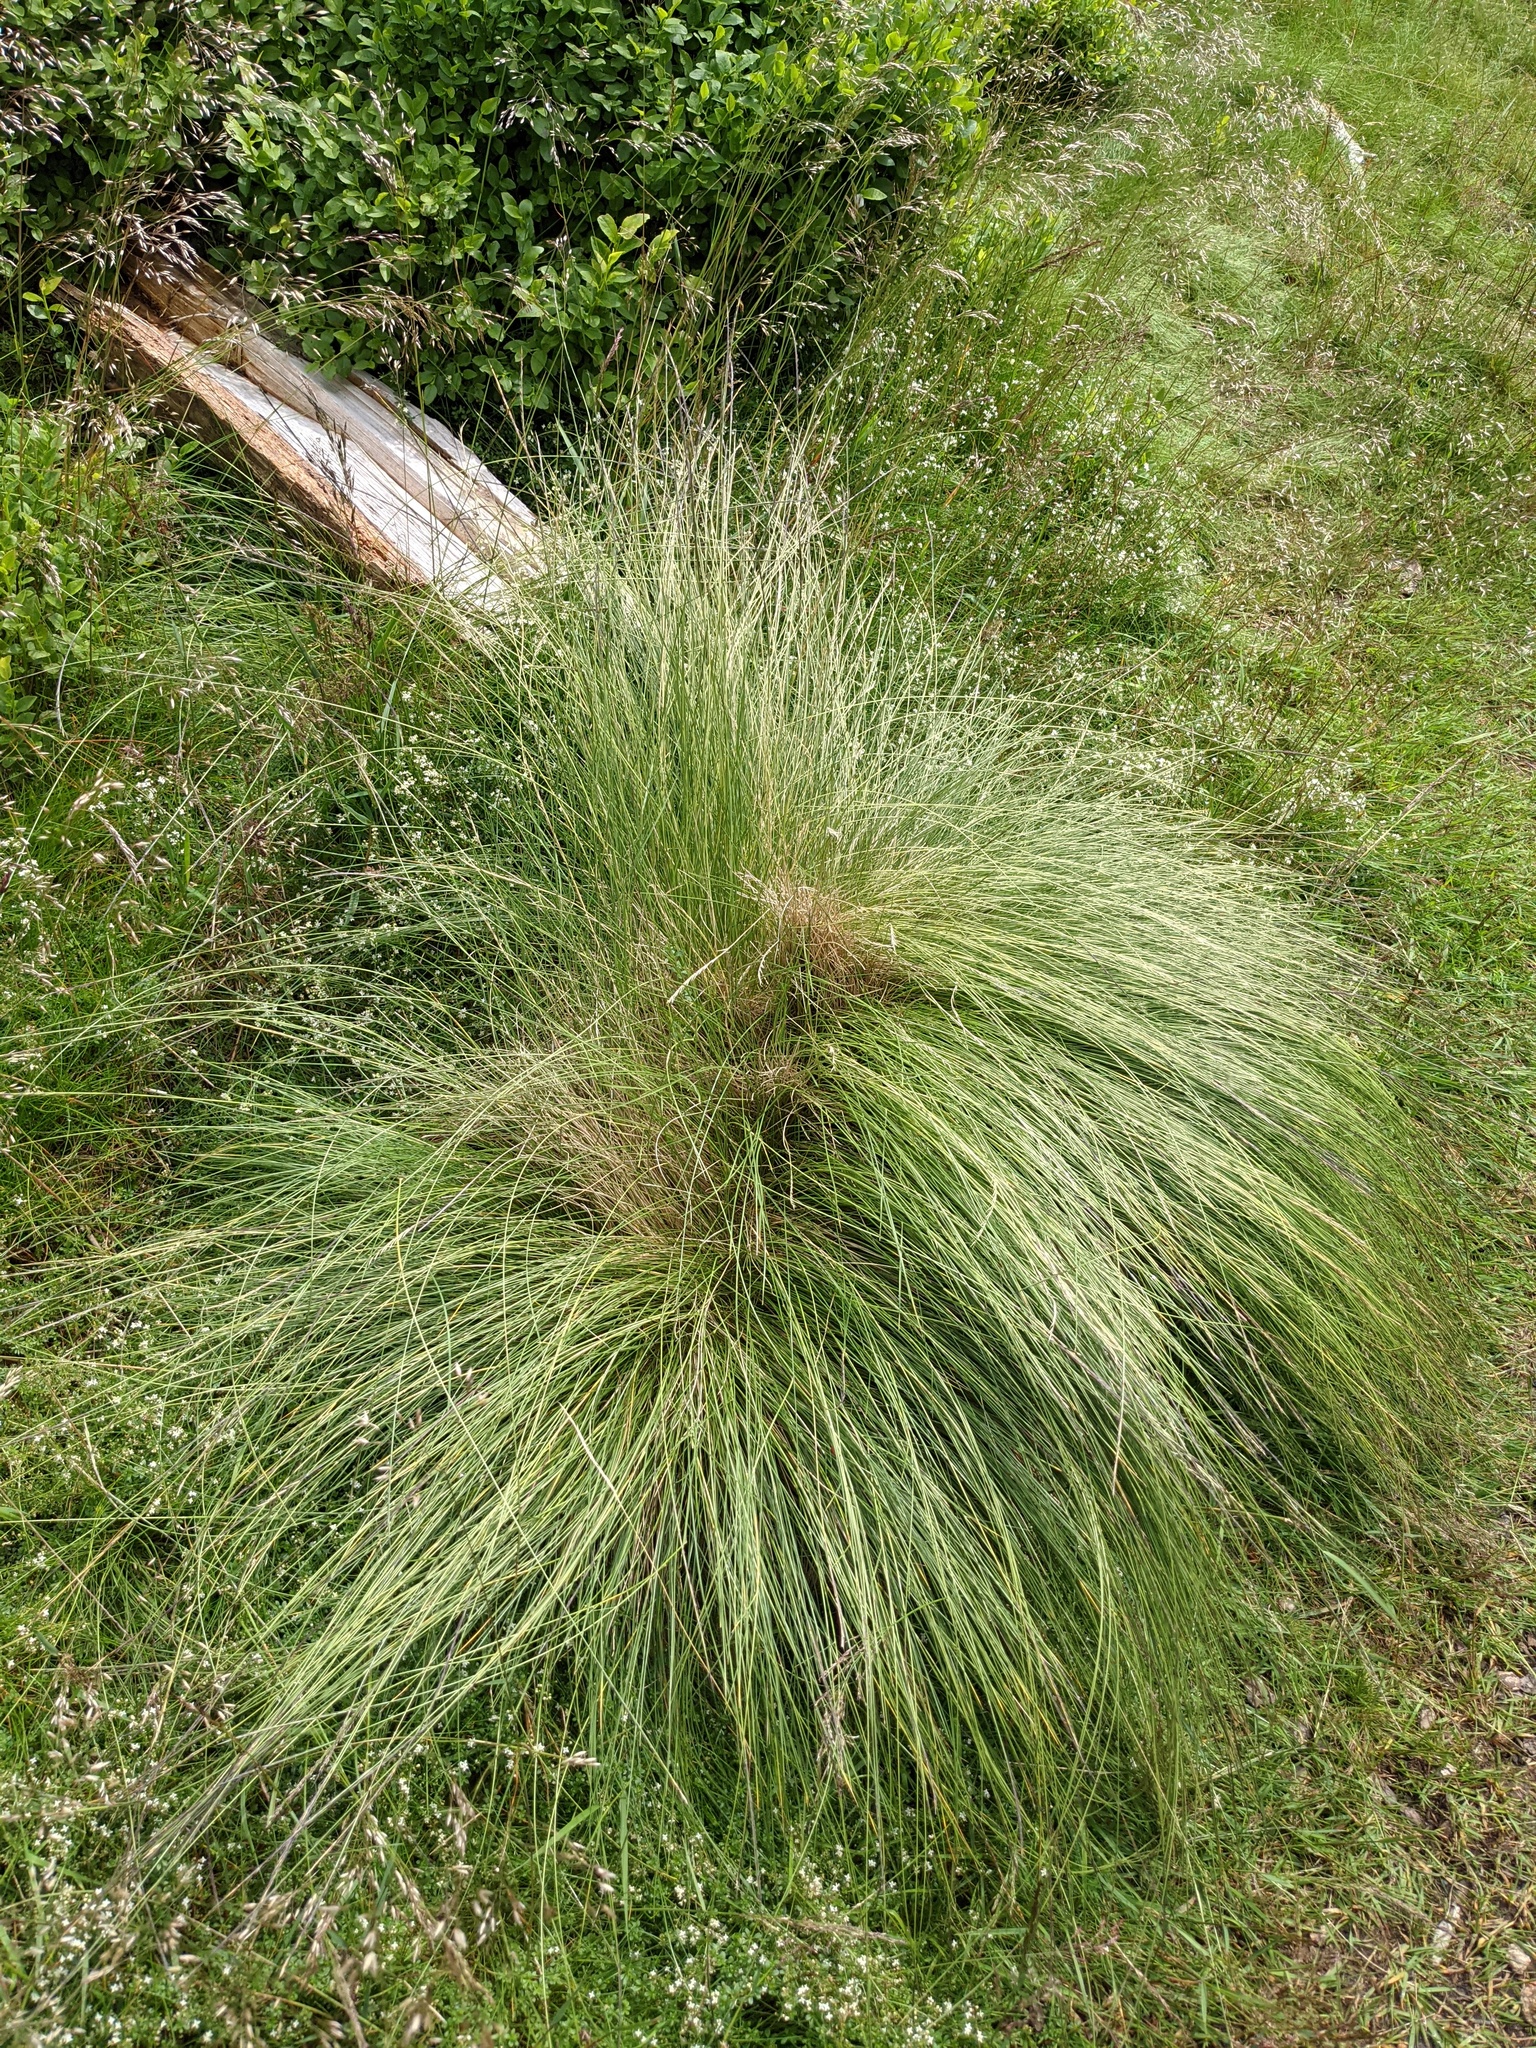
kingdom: Plantae
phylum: Tracheophyta
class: Liliopsida
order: Poales
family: Poaceae
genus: Nardus
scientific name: Nardus stricta
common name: Mat-grass
